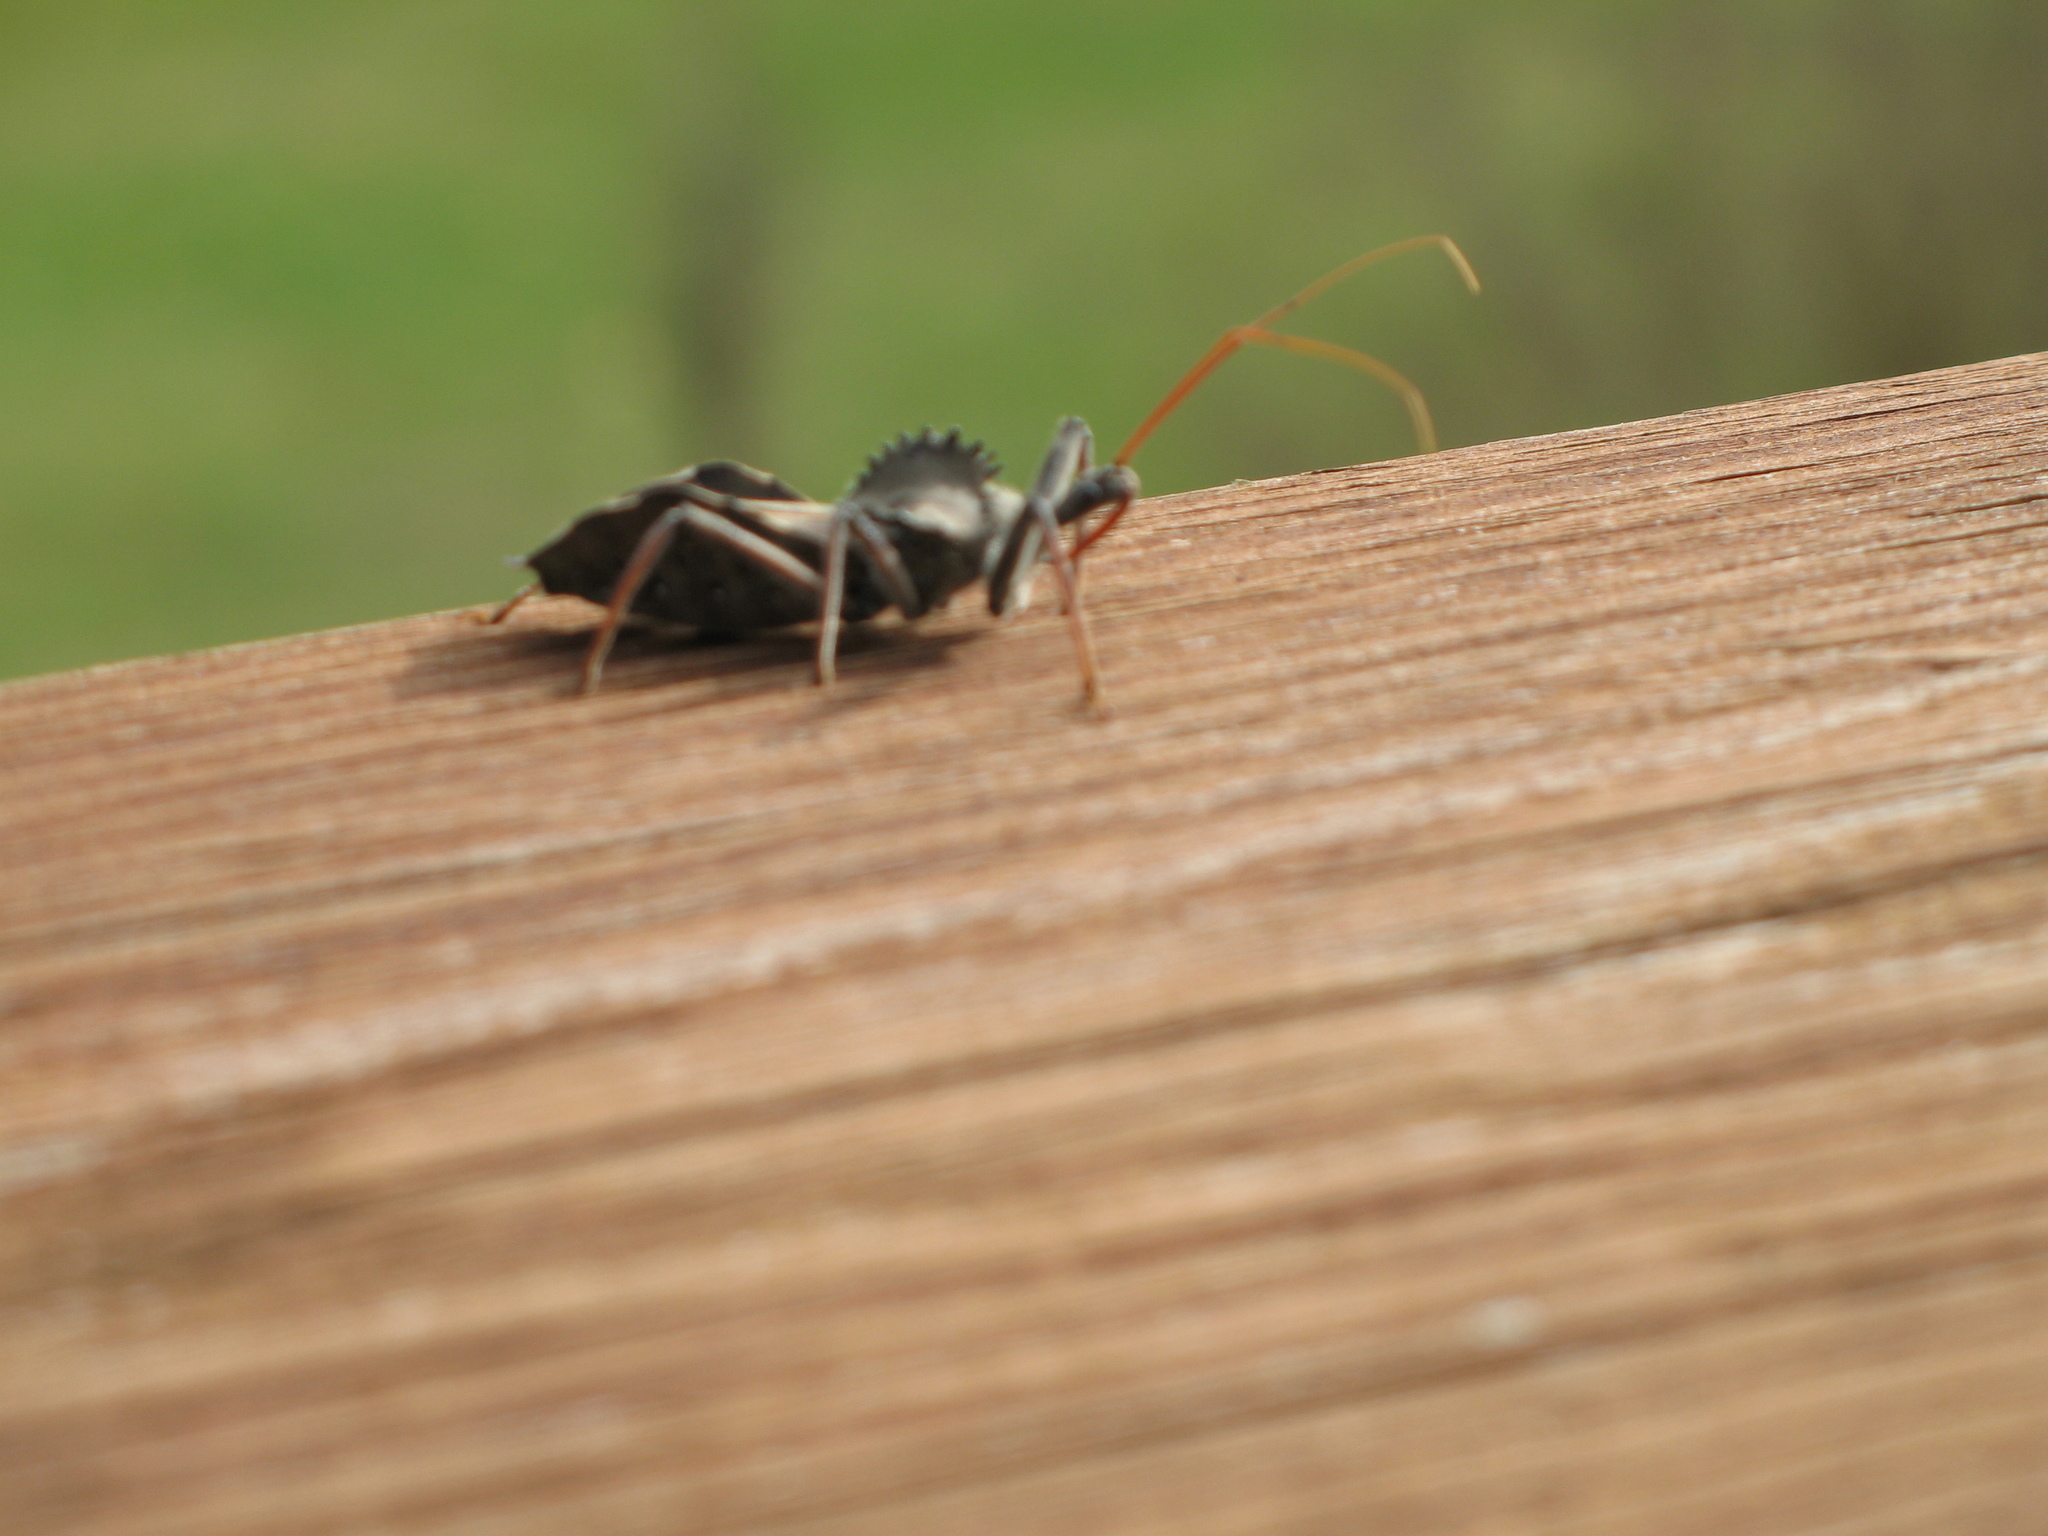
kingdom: Animalia
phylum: Arthropoda
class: Insecta
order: Hemiptera
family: Reduviidae
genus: Arilus
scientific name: Arilus cristatus
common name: North american wheel bug
